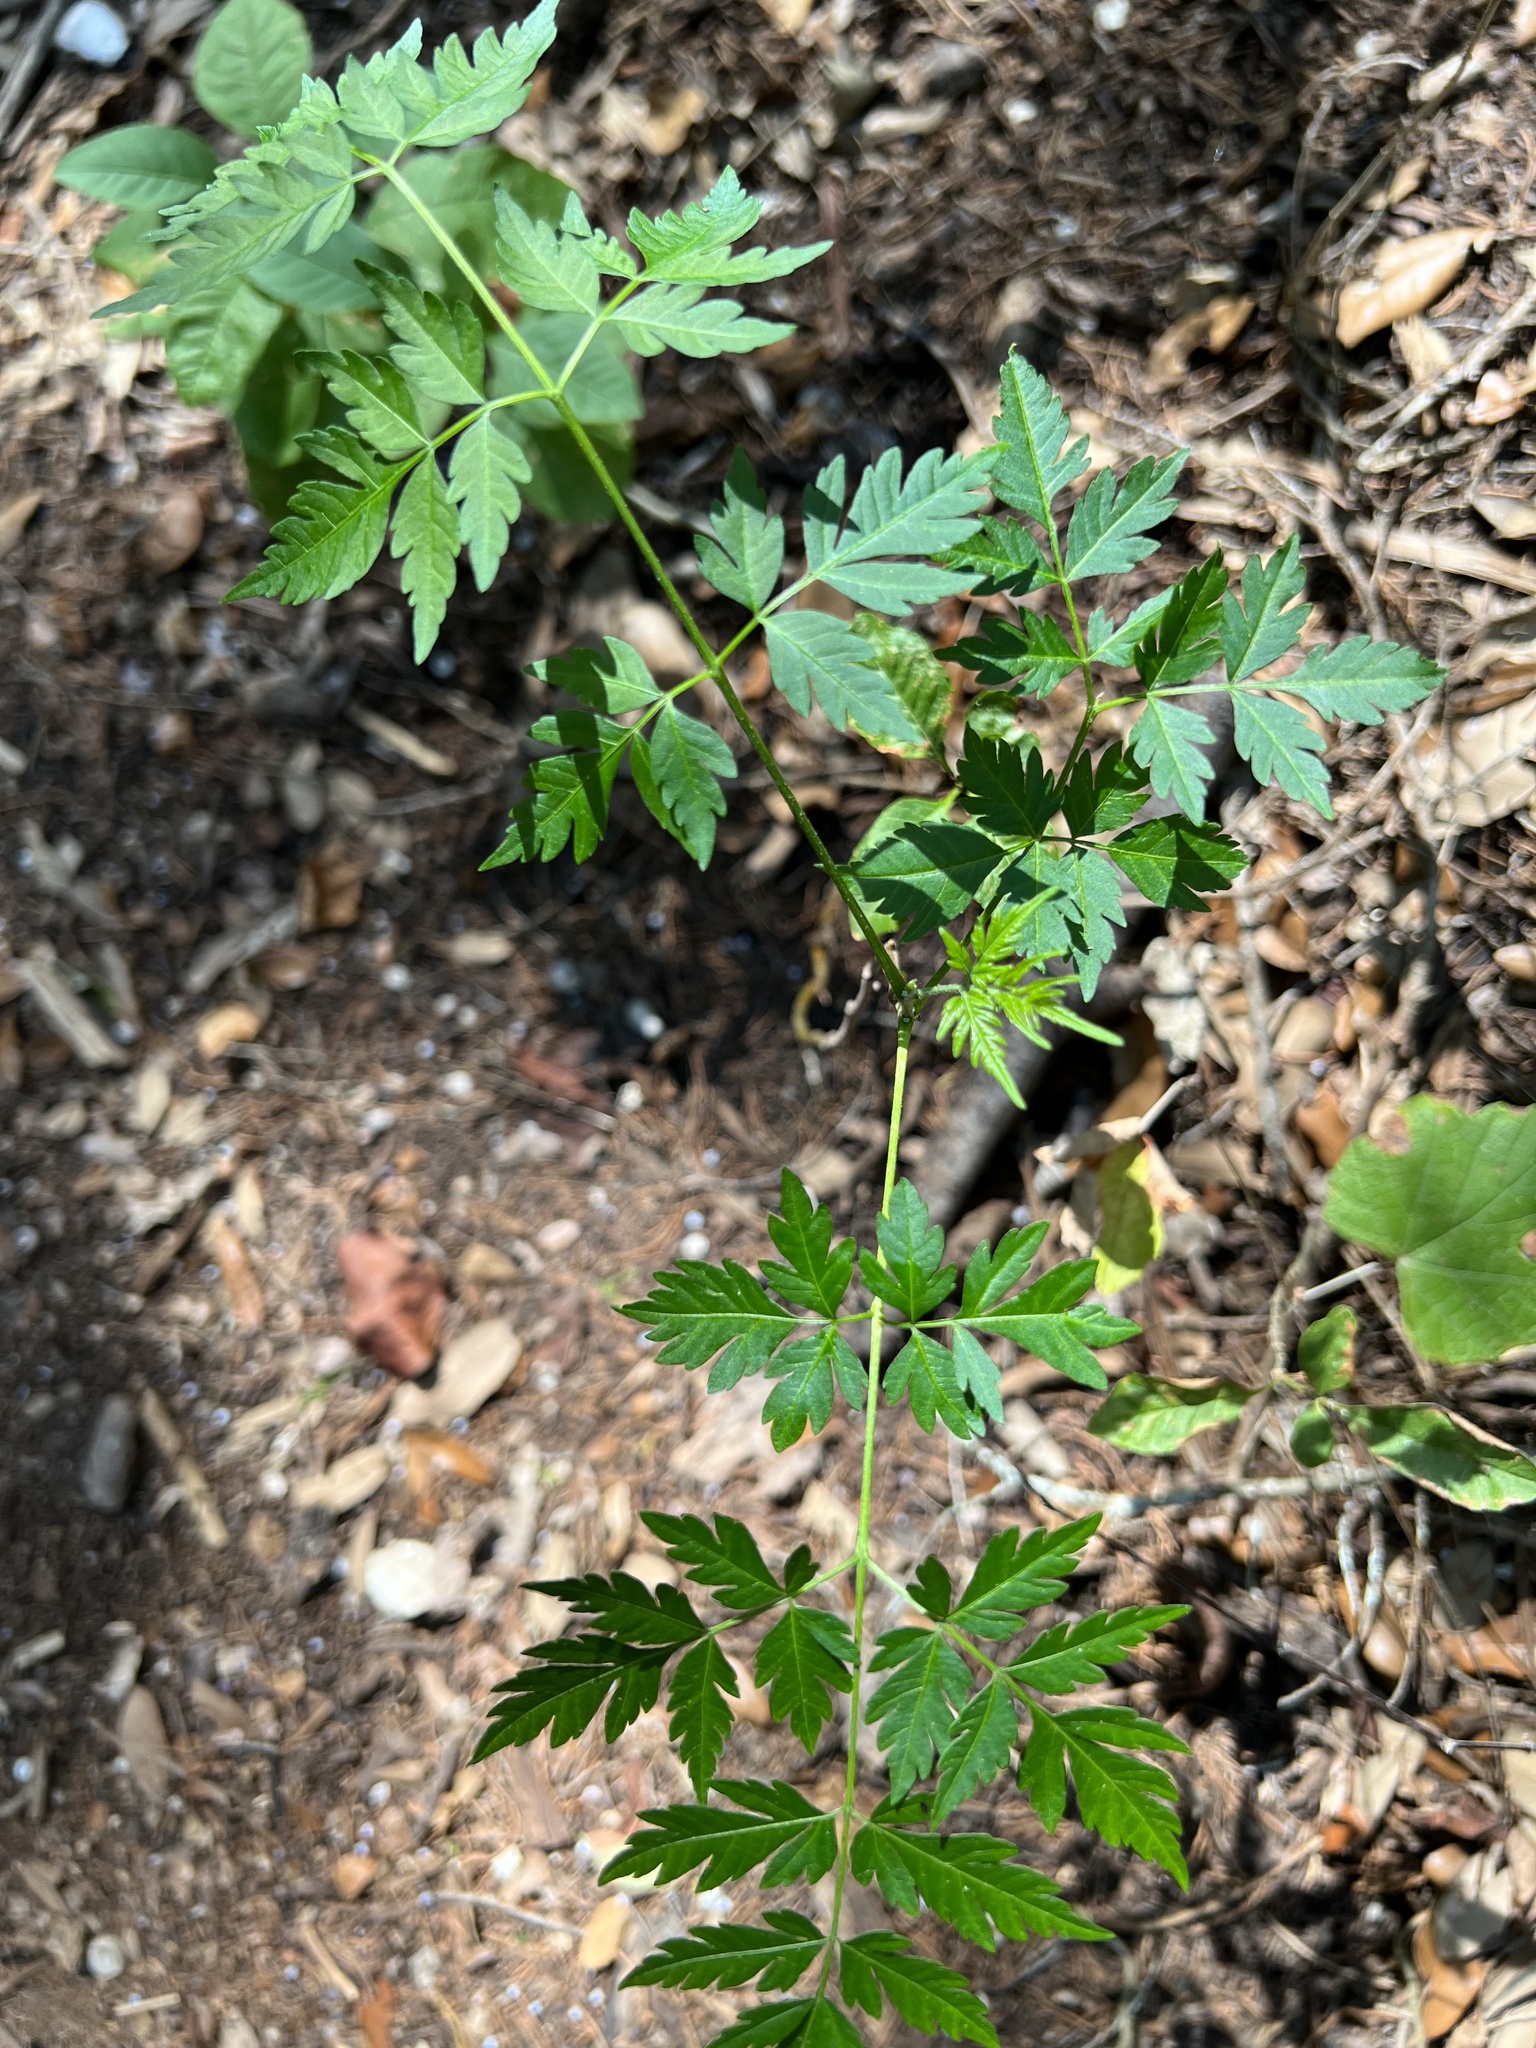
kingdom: Plantae
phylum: Tracheophyta
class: Magnoliopsida
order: Sapindales
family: Meliaceae
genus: Melia
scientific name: Melia azedarach
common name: Chinaberrytree
